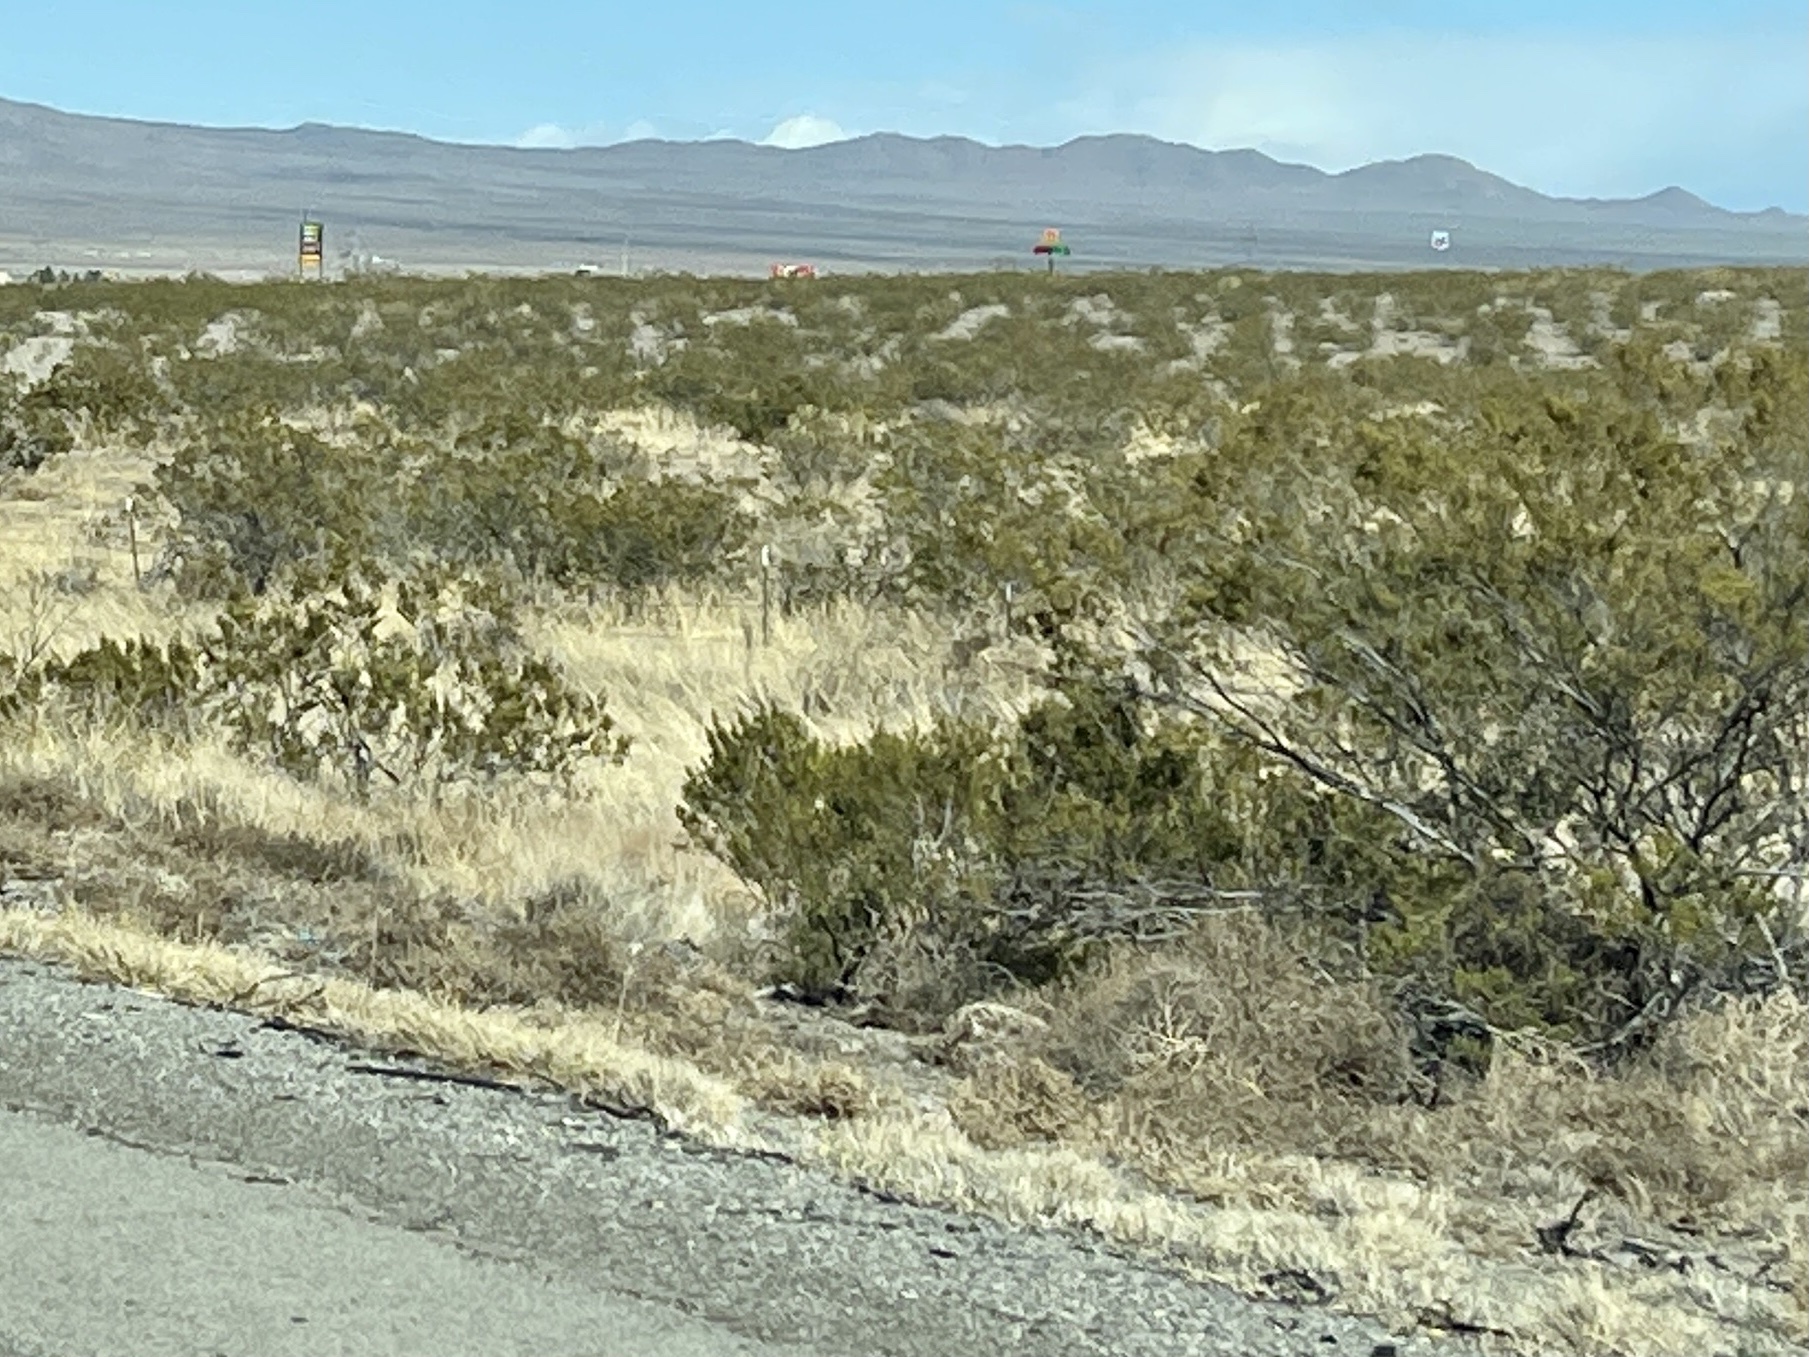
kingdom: Plantae
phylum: Tracheophyta
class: Magnoliopsida
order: Zygophyllales
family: Zygophyllaceae
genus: Larrea
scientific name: Larrea tridentata
